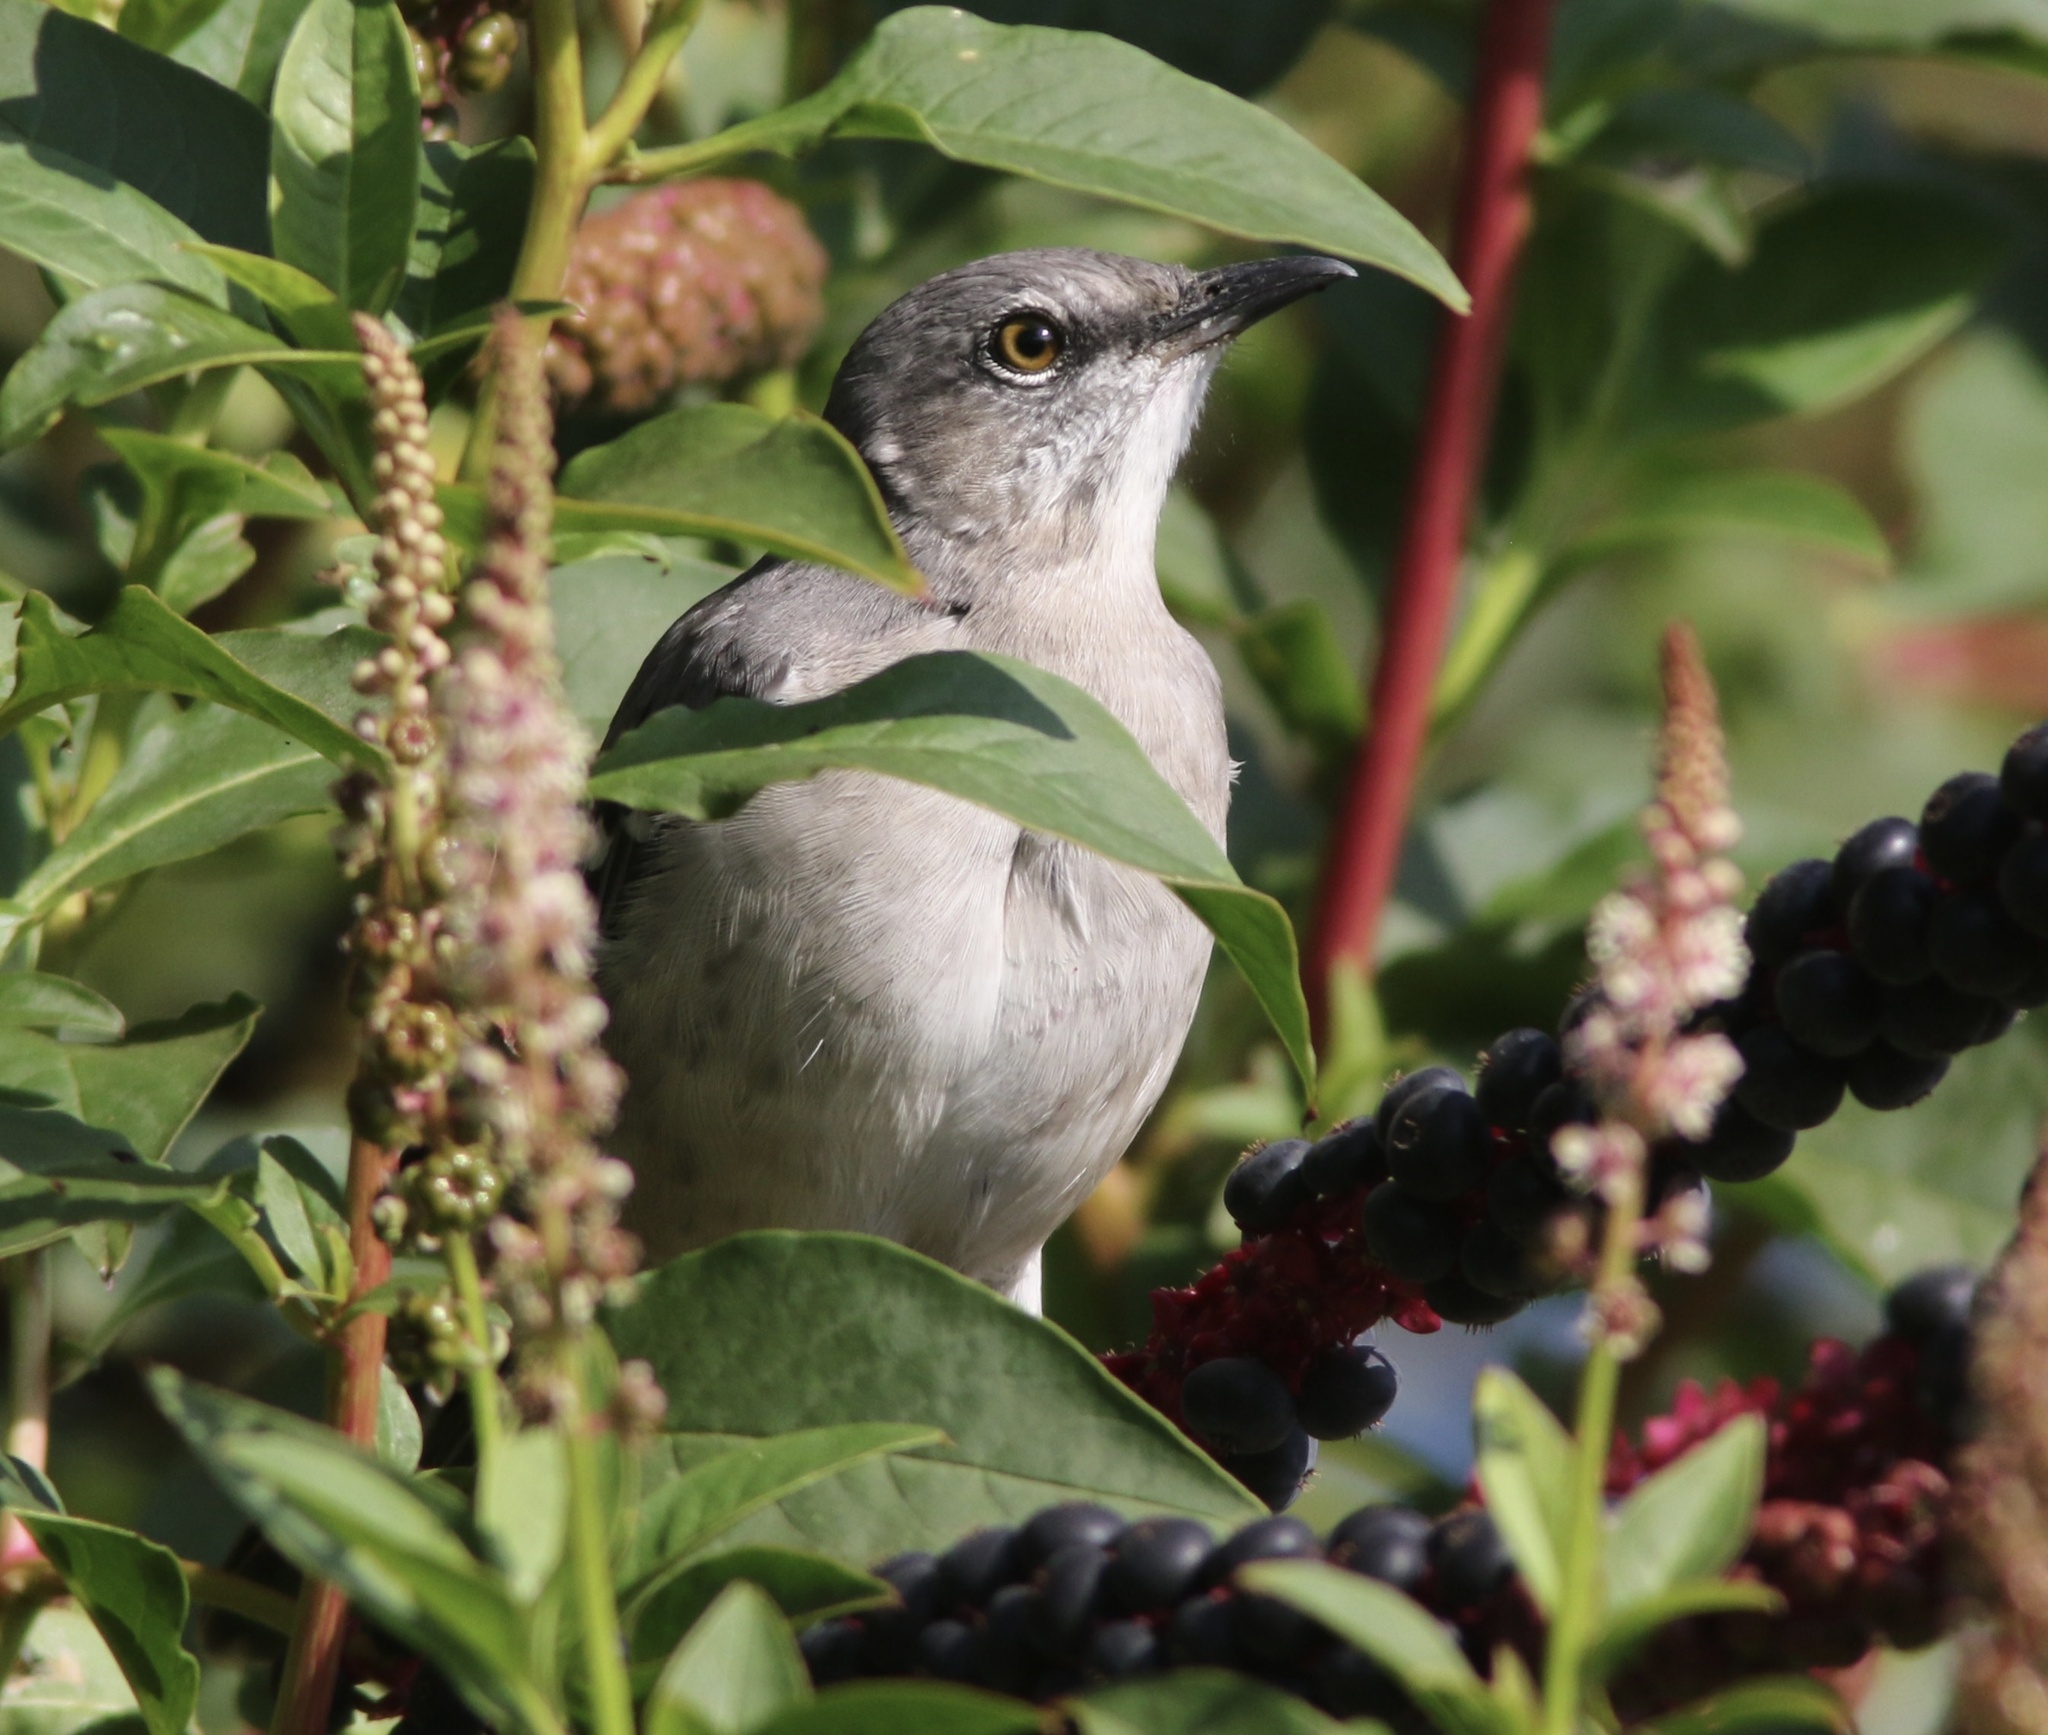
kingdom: Animalia
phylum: Chordata
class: Aves
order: Passeriformes
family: Mimidae
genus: Mimus
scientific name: Mimus polyglottos
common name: Northern mockingbird
